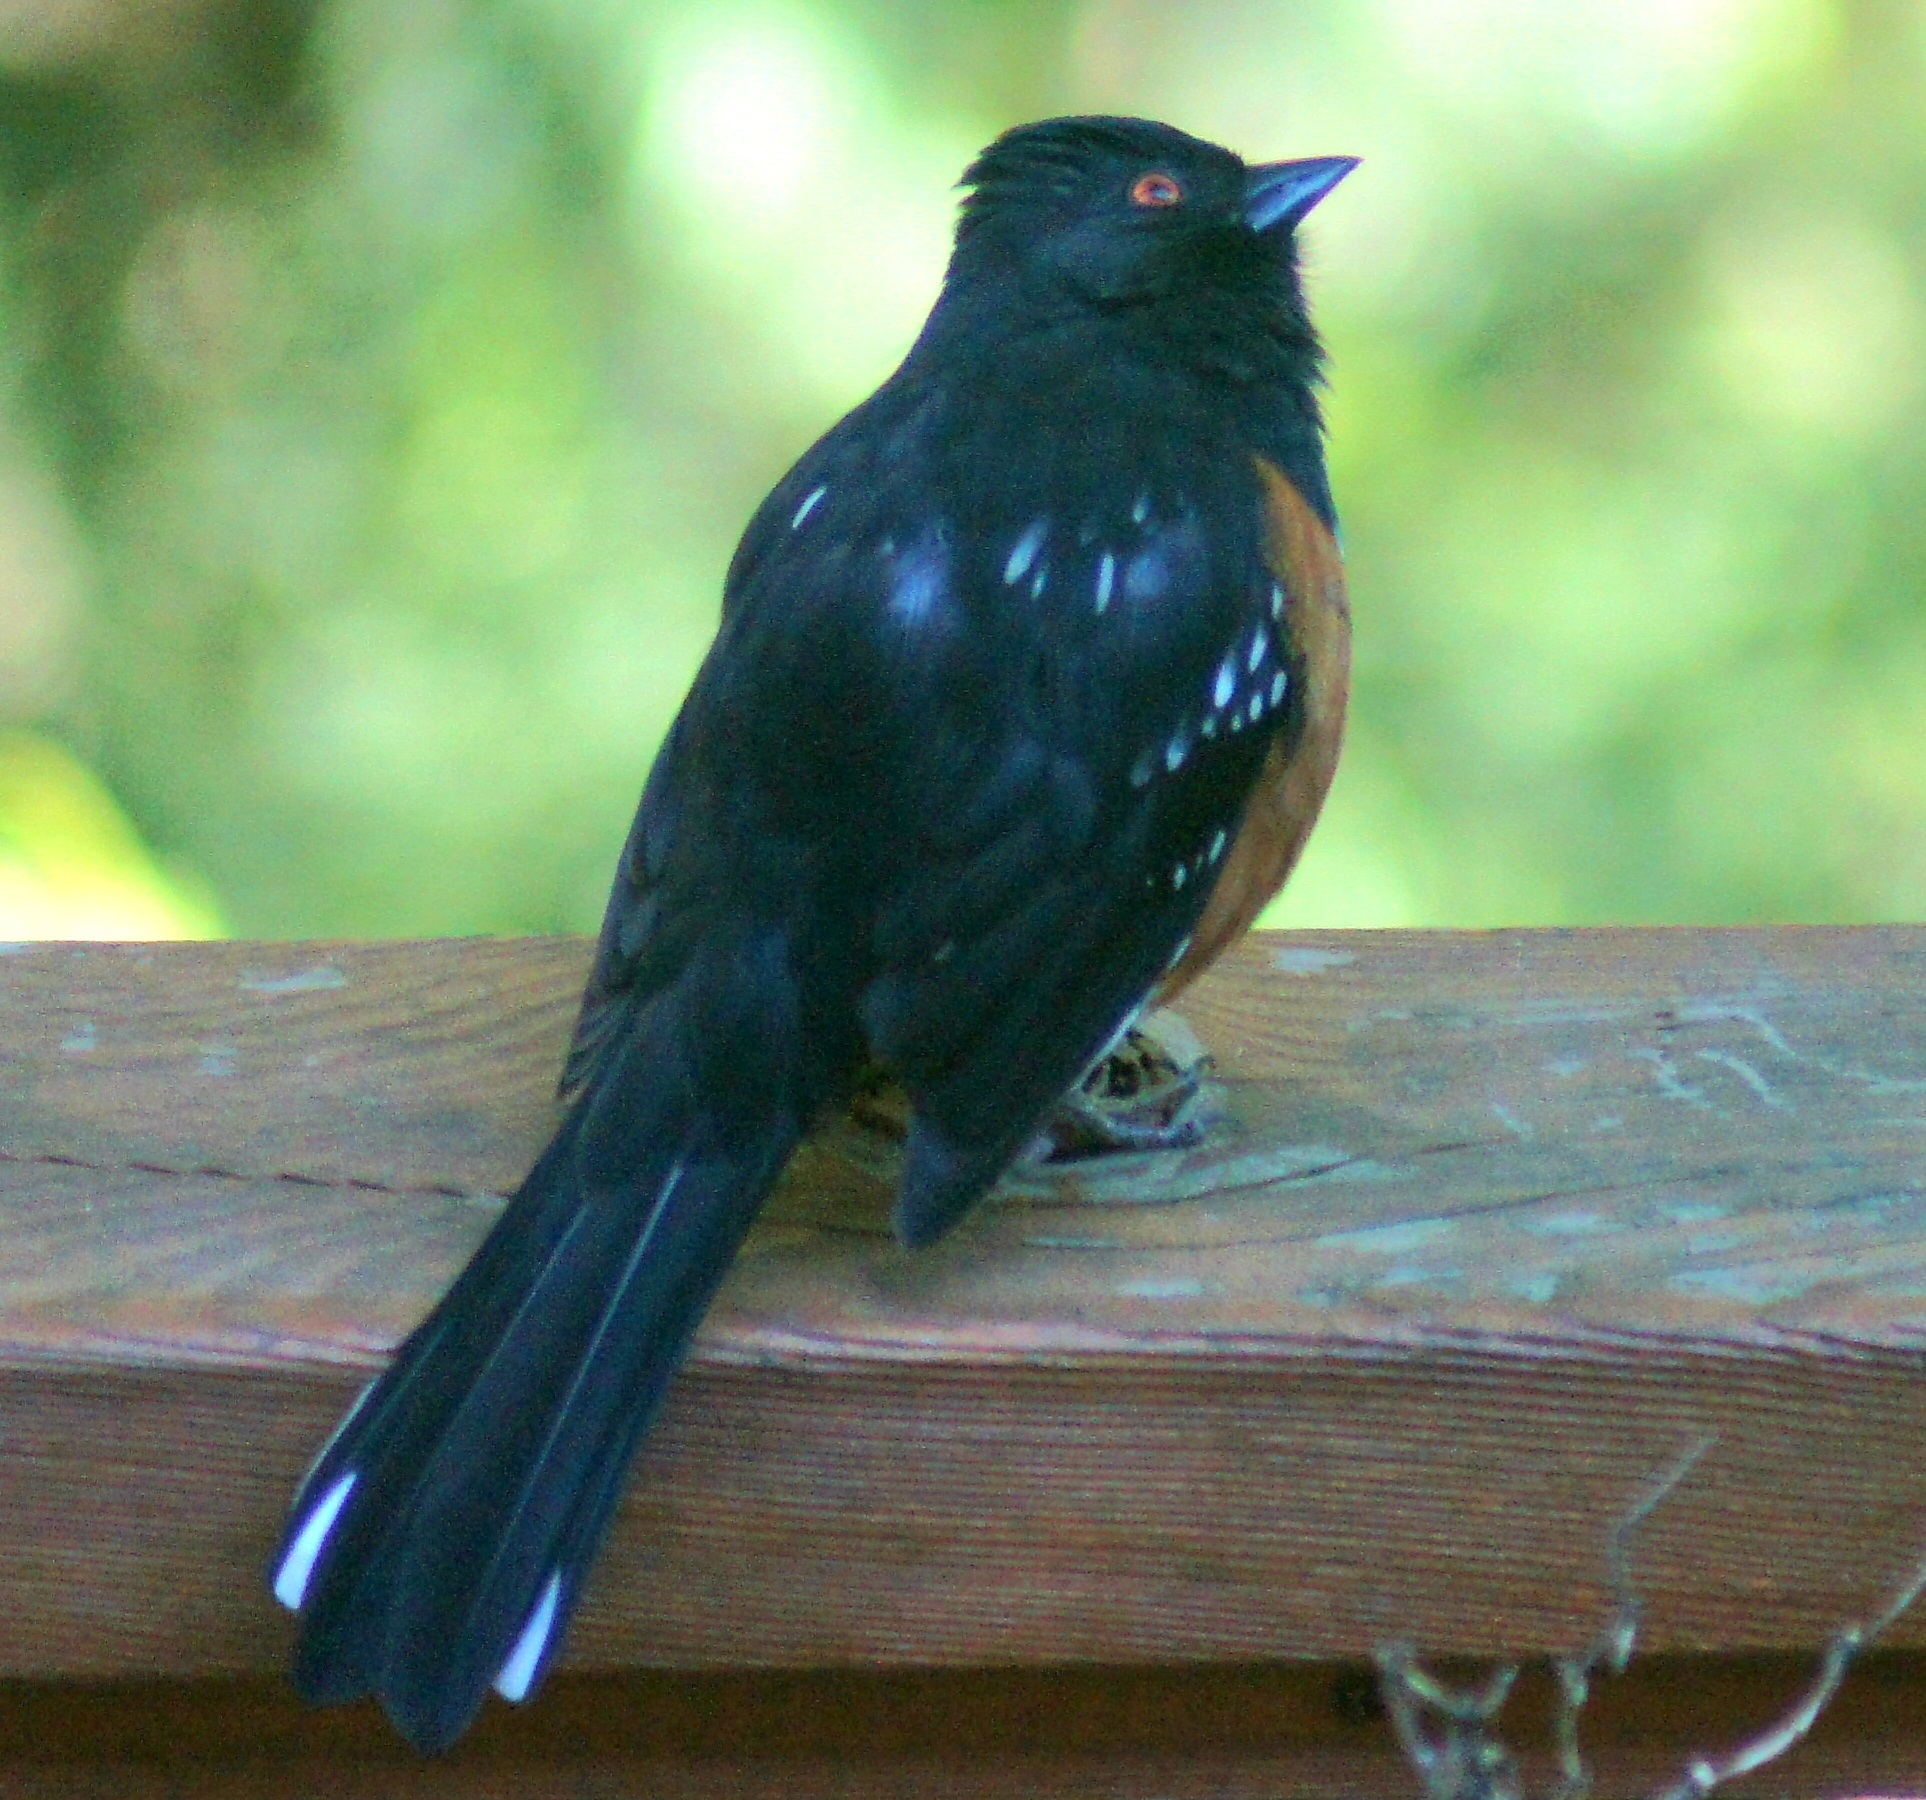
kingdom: Animalia
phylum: Chordata
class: Aves
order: Passeriformes
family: Passerellidae
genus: Pipilo
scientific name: Pipilo maculatus
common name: Spotted towhee
